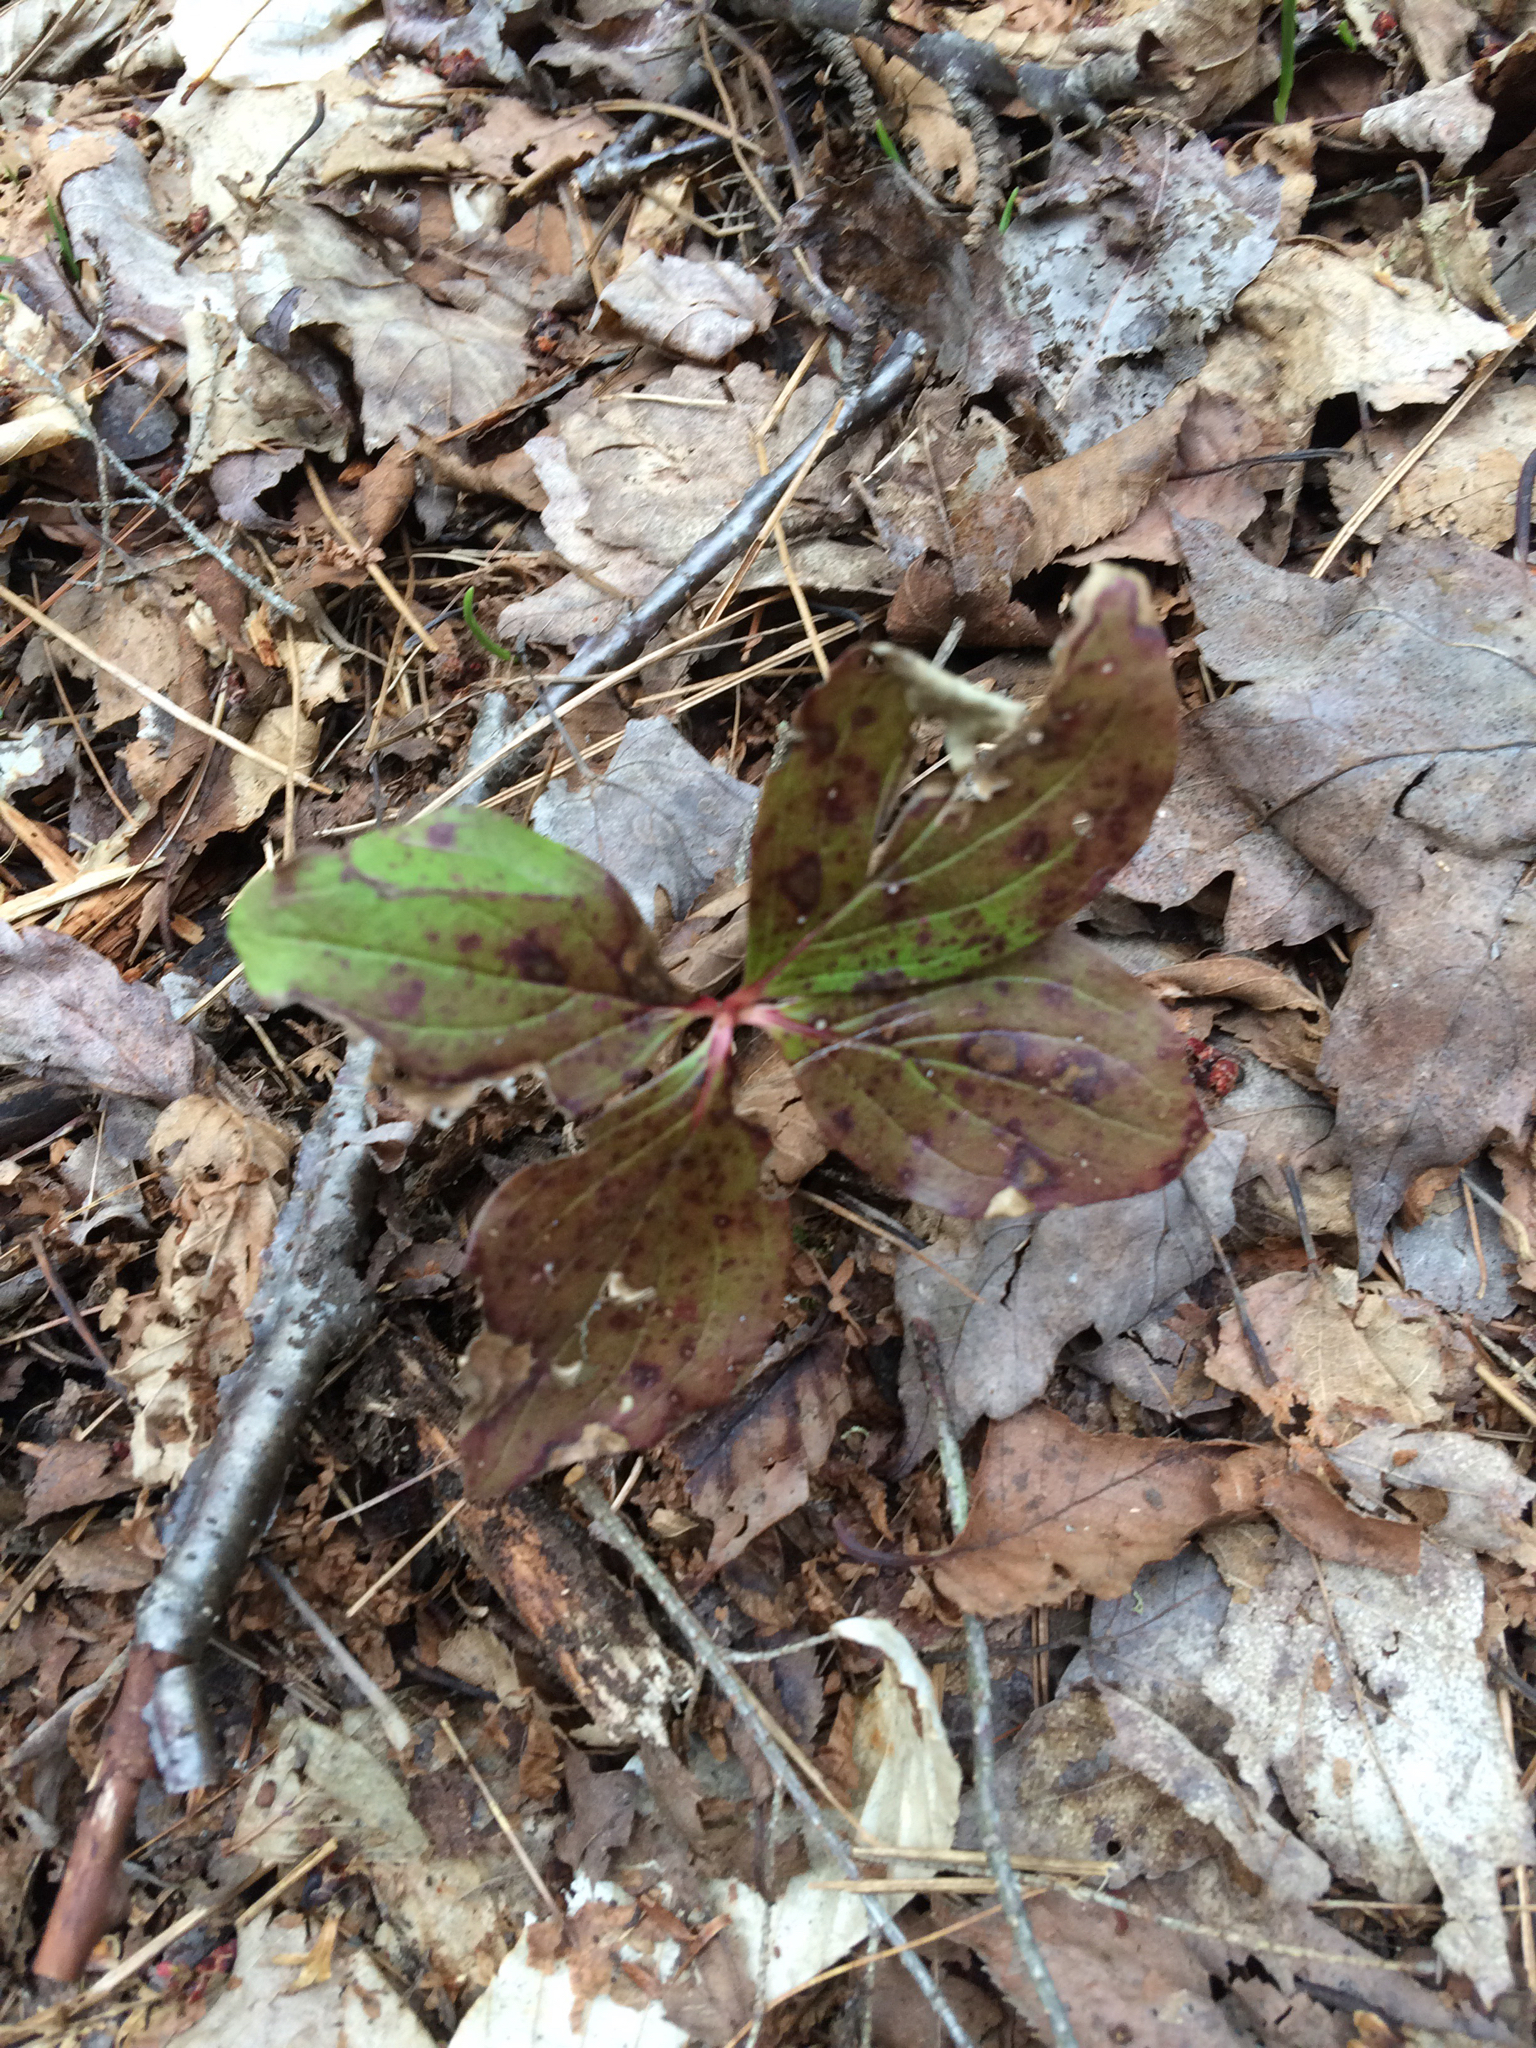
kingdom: Plantae
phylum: Tracheophyta
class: Magnoliopsida
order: Cornales
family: Cornaceae
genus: Cornus
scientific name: Cornus canadensis
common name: Creeping dogwood
